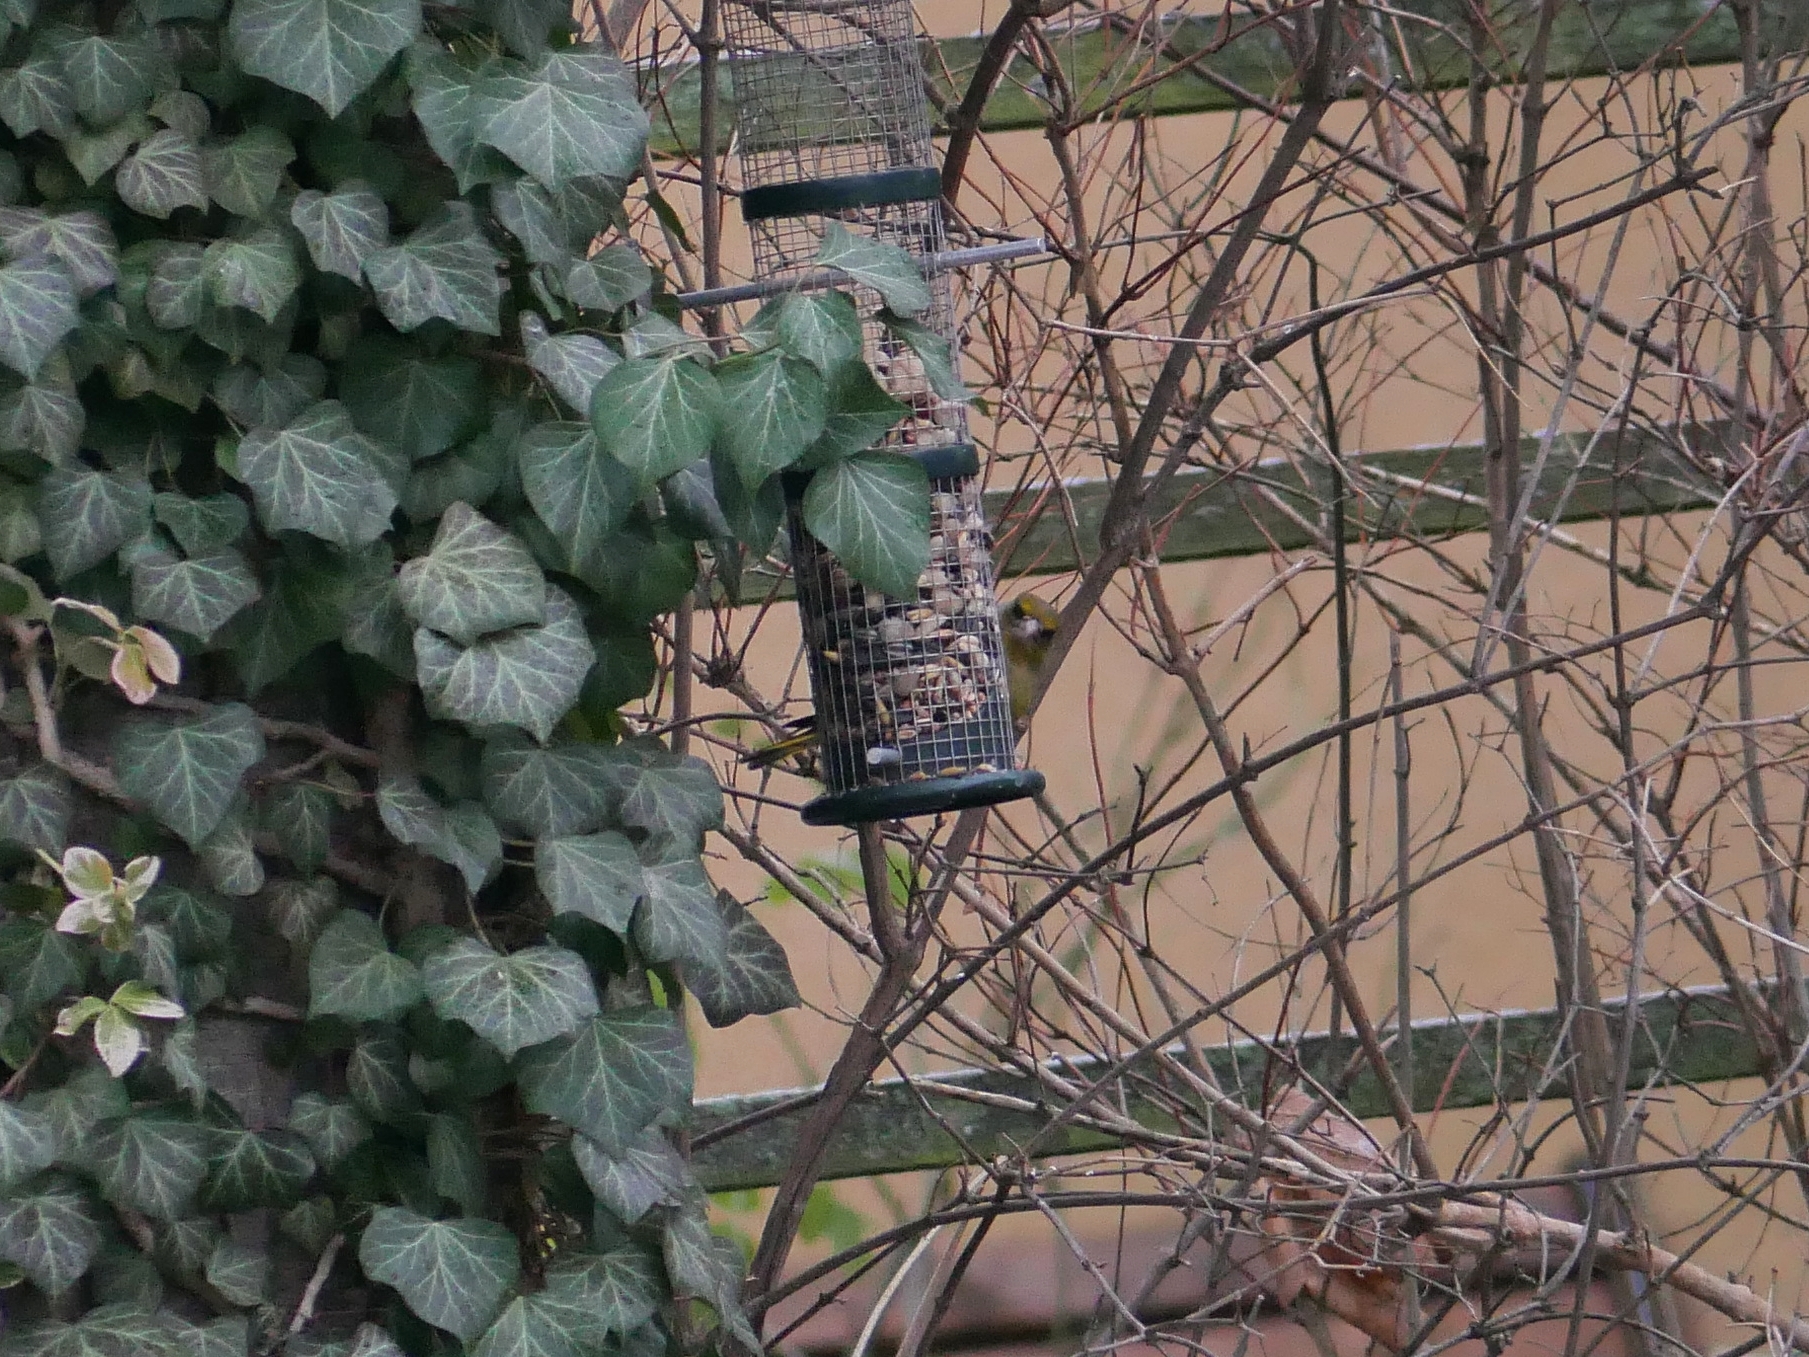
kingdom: Plantae
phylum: Tracheophyta
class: Liliopsida
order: Poales
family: Poaceae
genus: Chloris
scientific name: Chloris chloris
